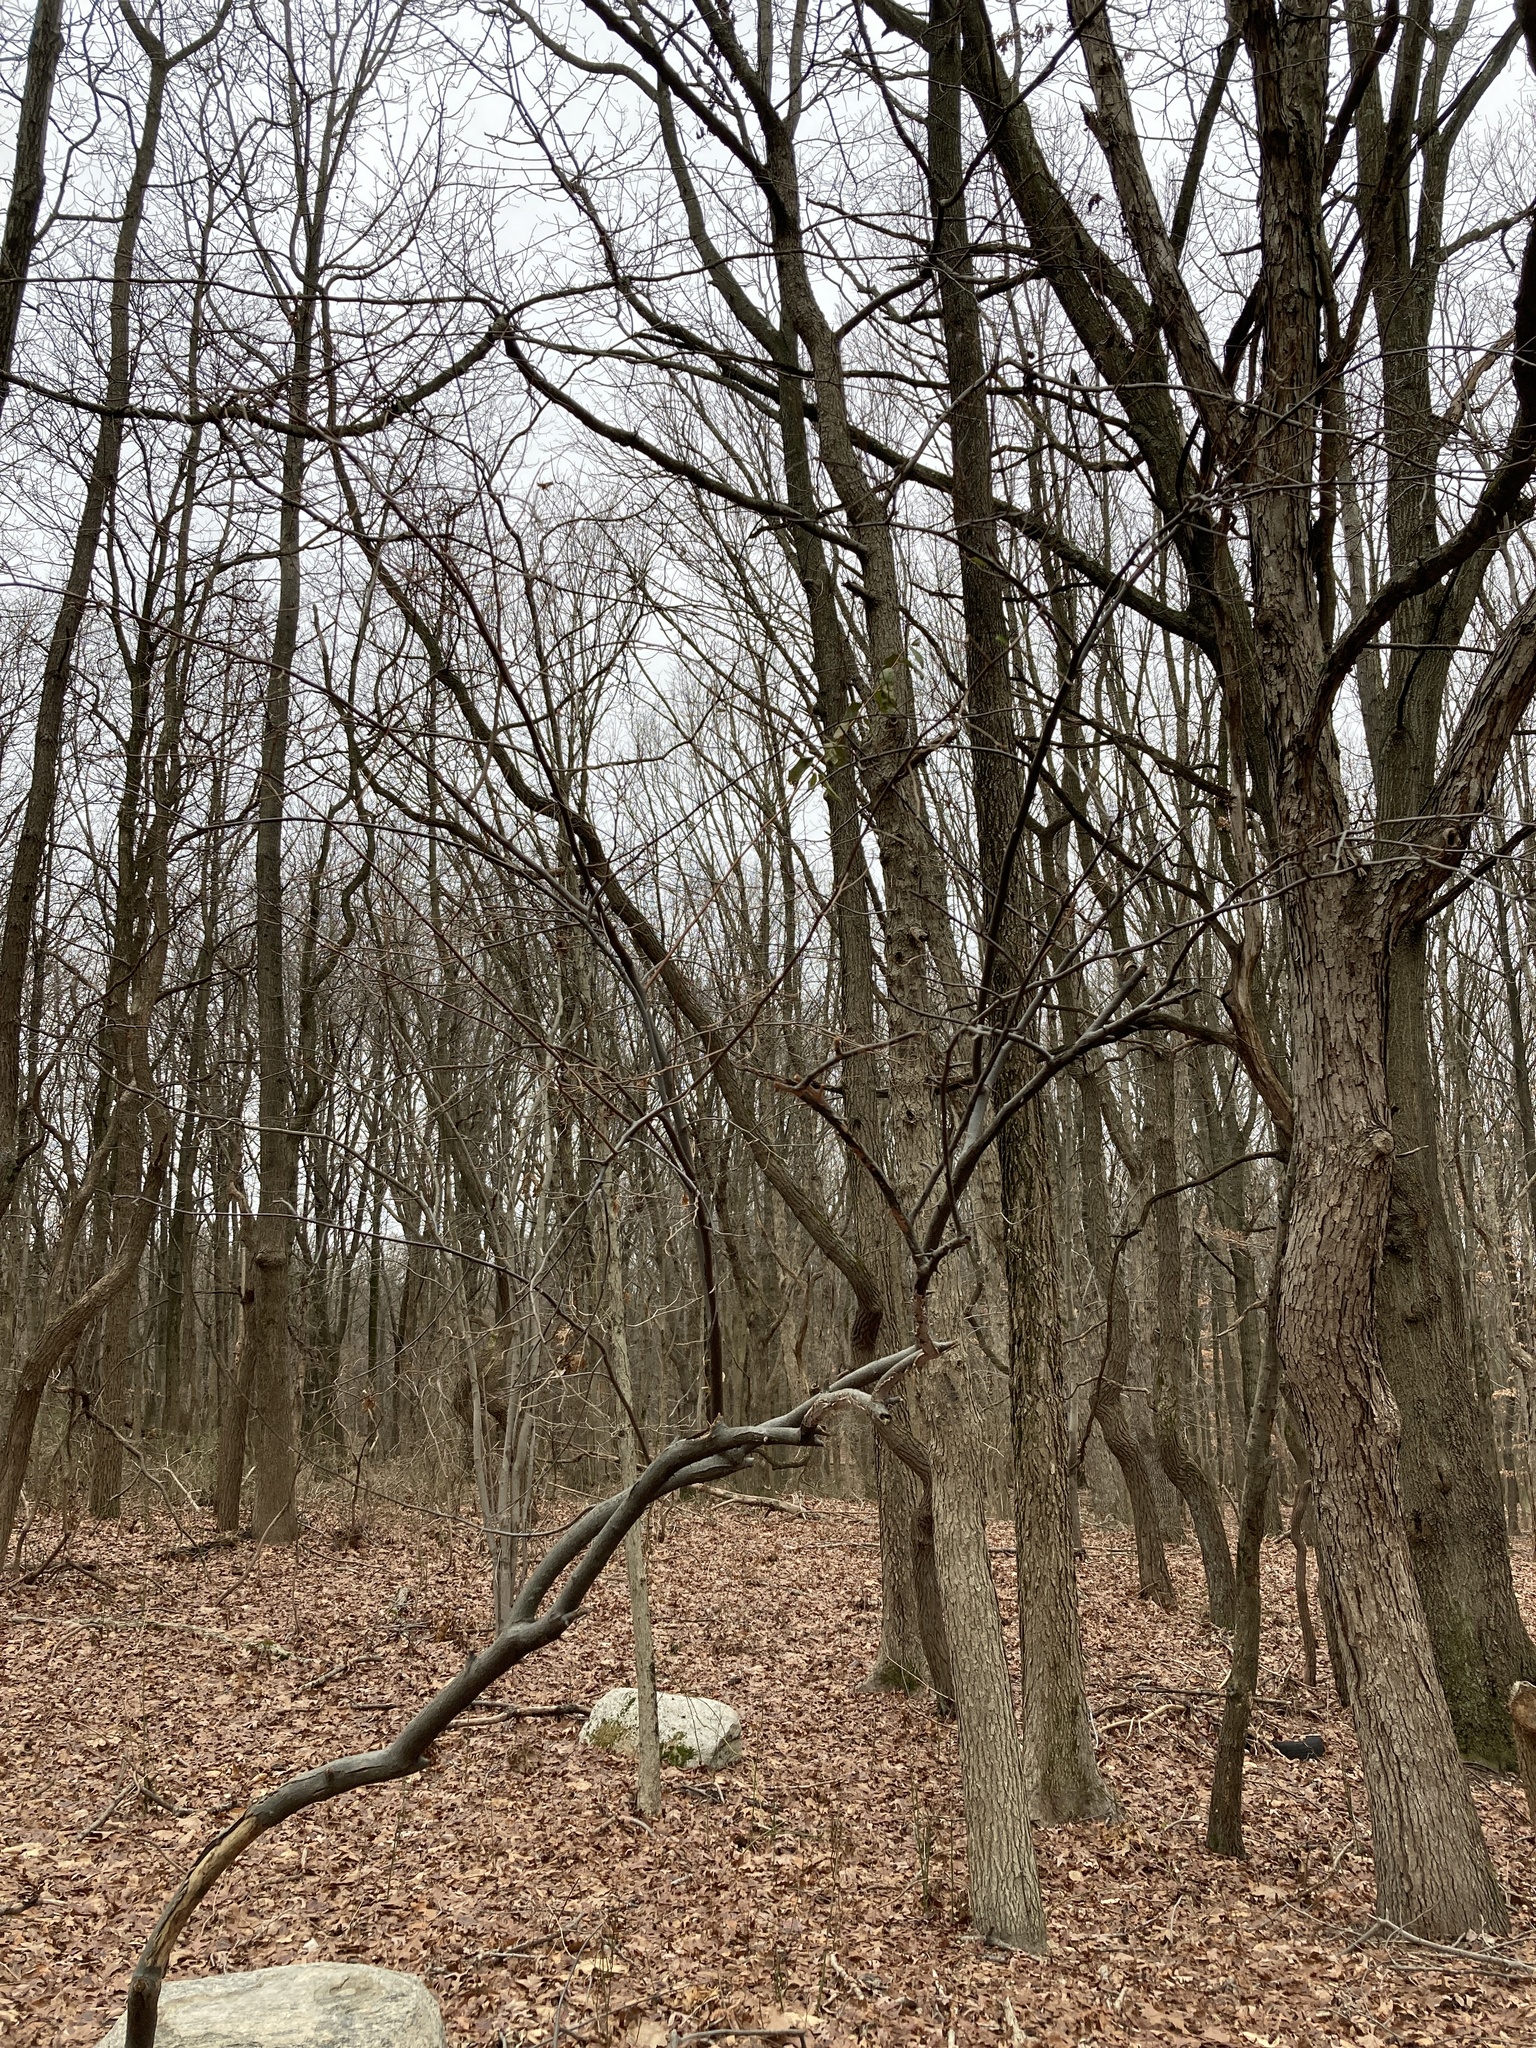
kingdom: Plantae
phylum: Tracheophyta
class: Magnoliopsida
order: Rosales
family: Elaeagnaceae
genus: Elaeagnus
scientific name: Elaeagnus umbellata
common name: Autumn olive
